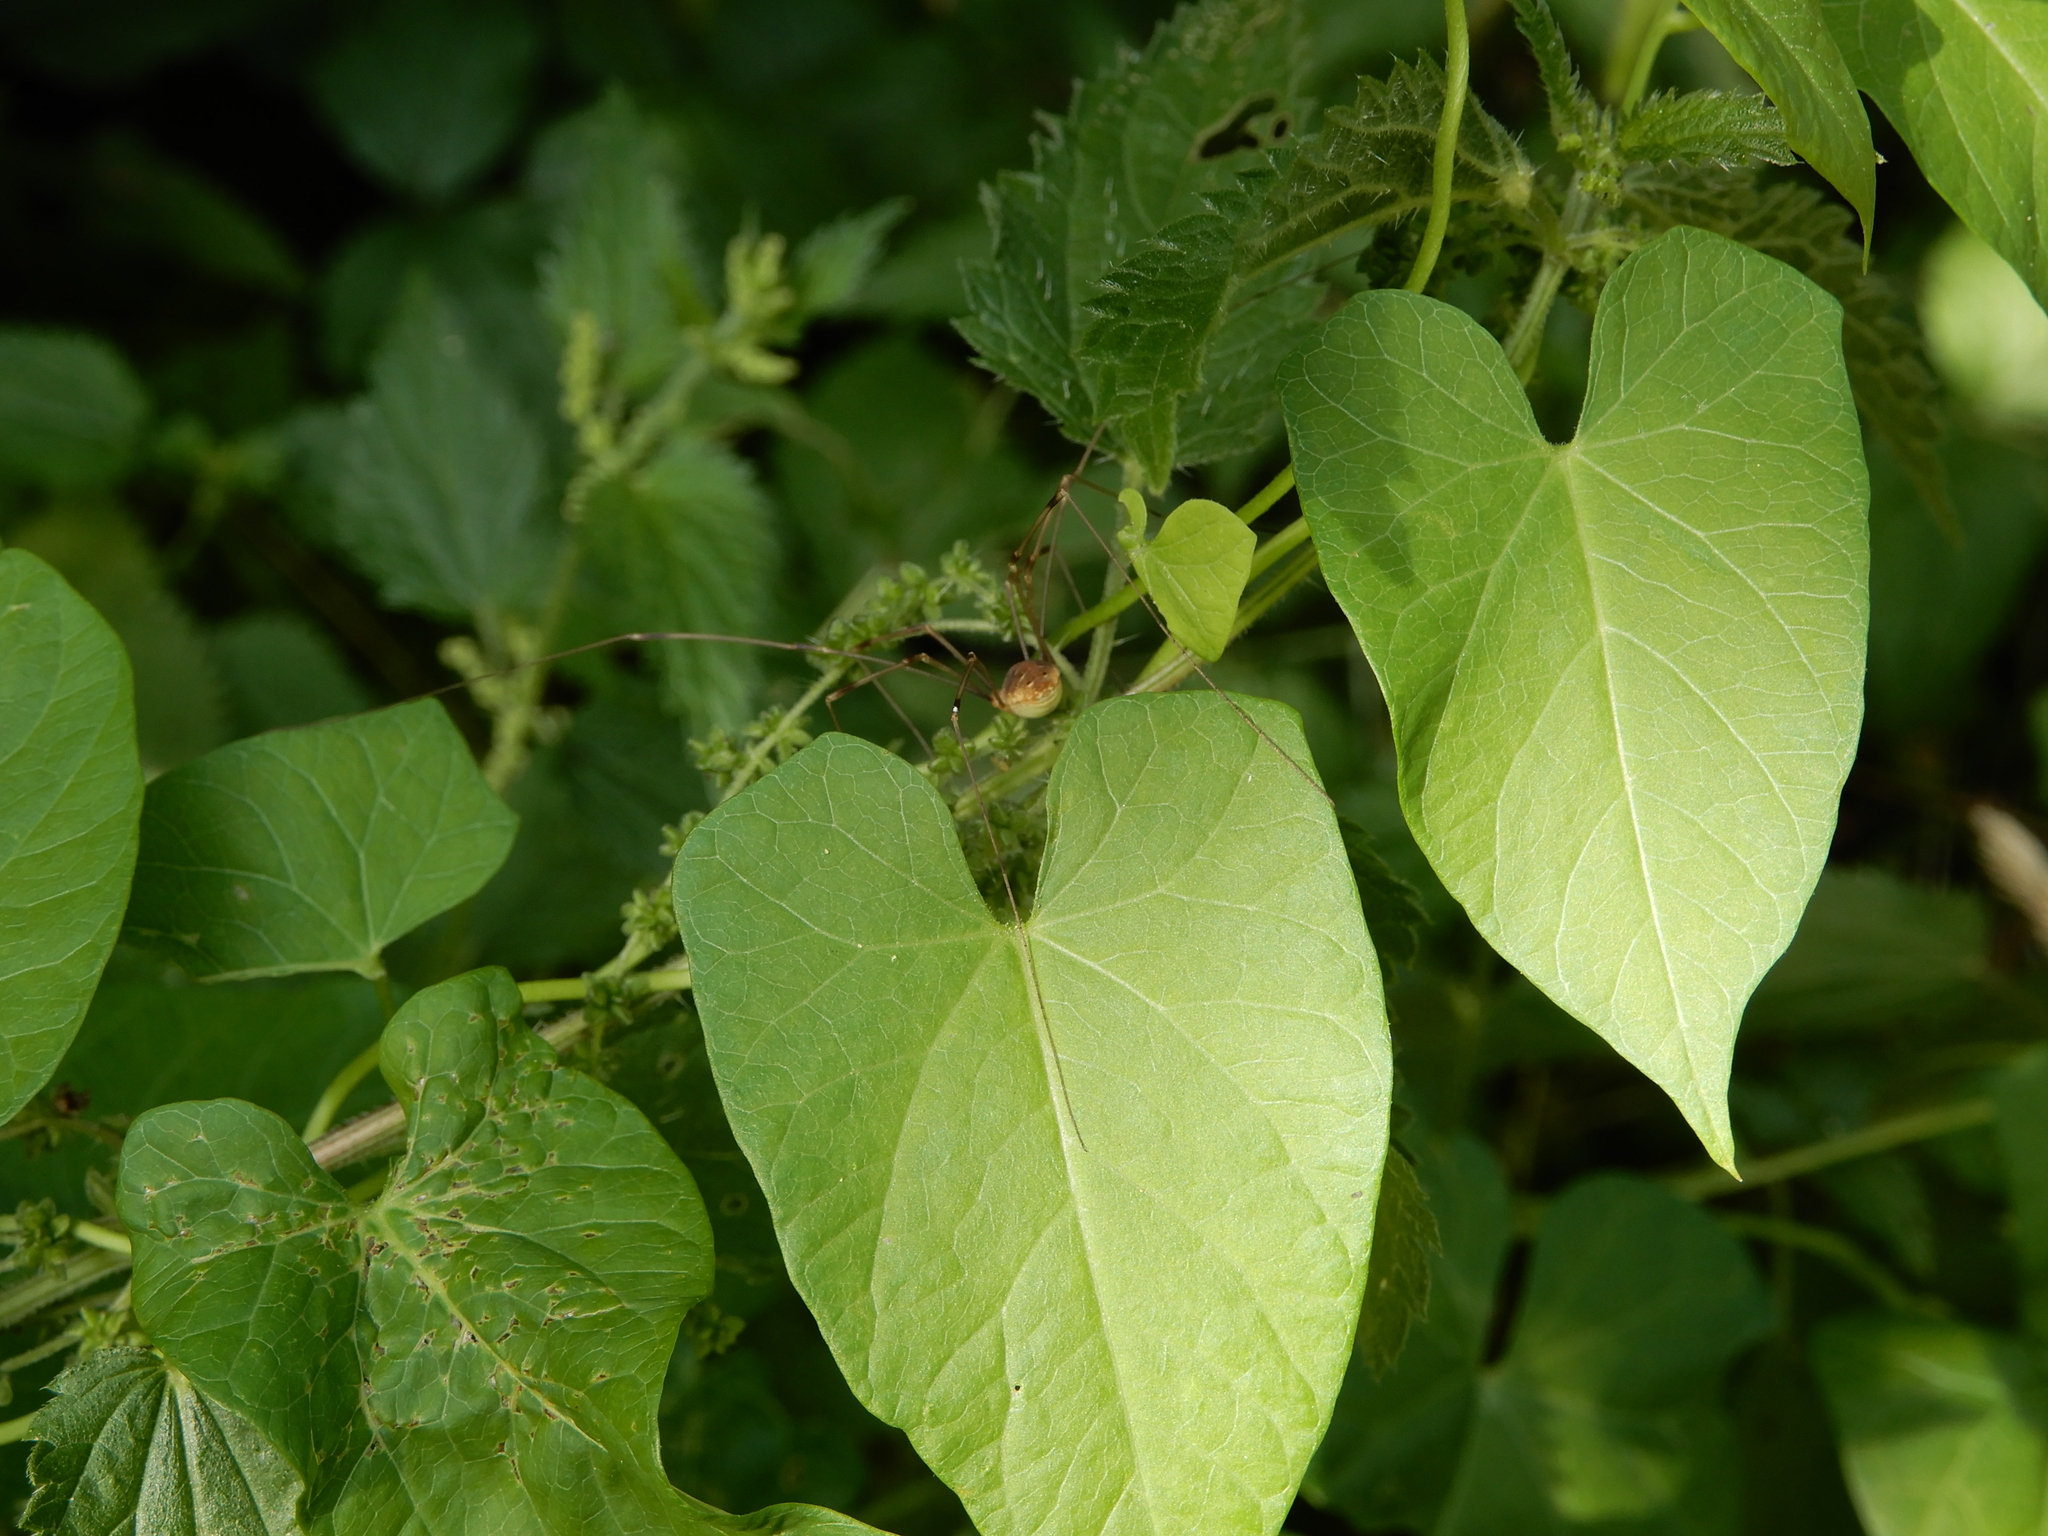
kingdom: Animalia
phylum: Arthropoda
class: Arachnida
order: Opiliones
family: Phalangiidae
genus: Opilio
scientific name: Opilio canestrinii
